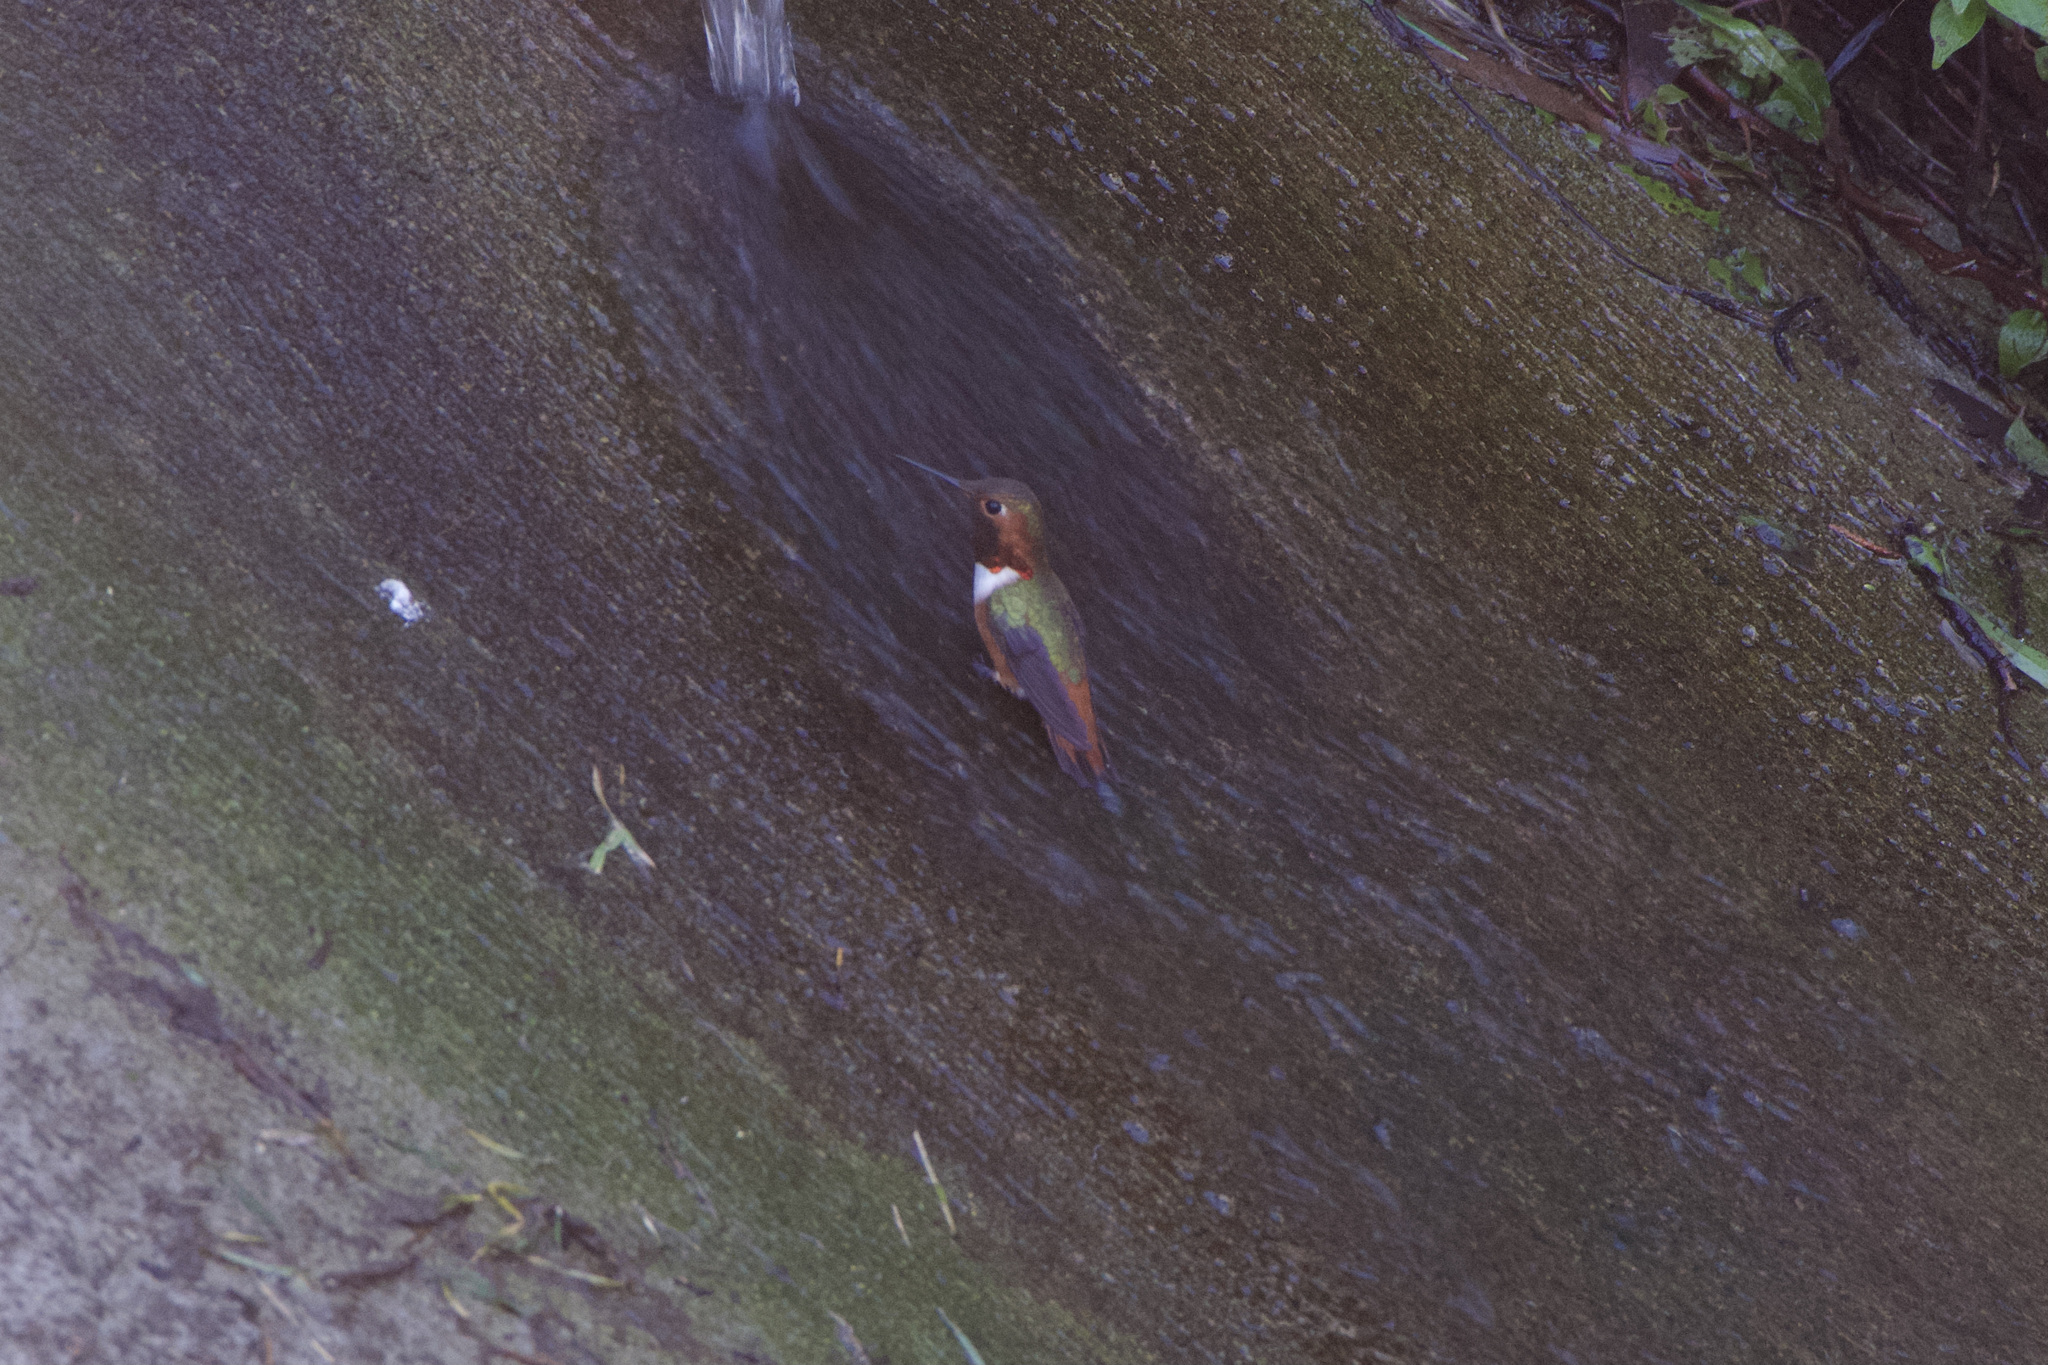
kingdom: Animalia
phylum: Chordata
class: Aves
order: Apodiformes
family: Trochilidae
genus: Selasphorus
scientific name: Selasphorus sasin
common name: Allen's hummingbird
